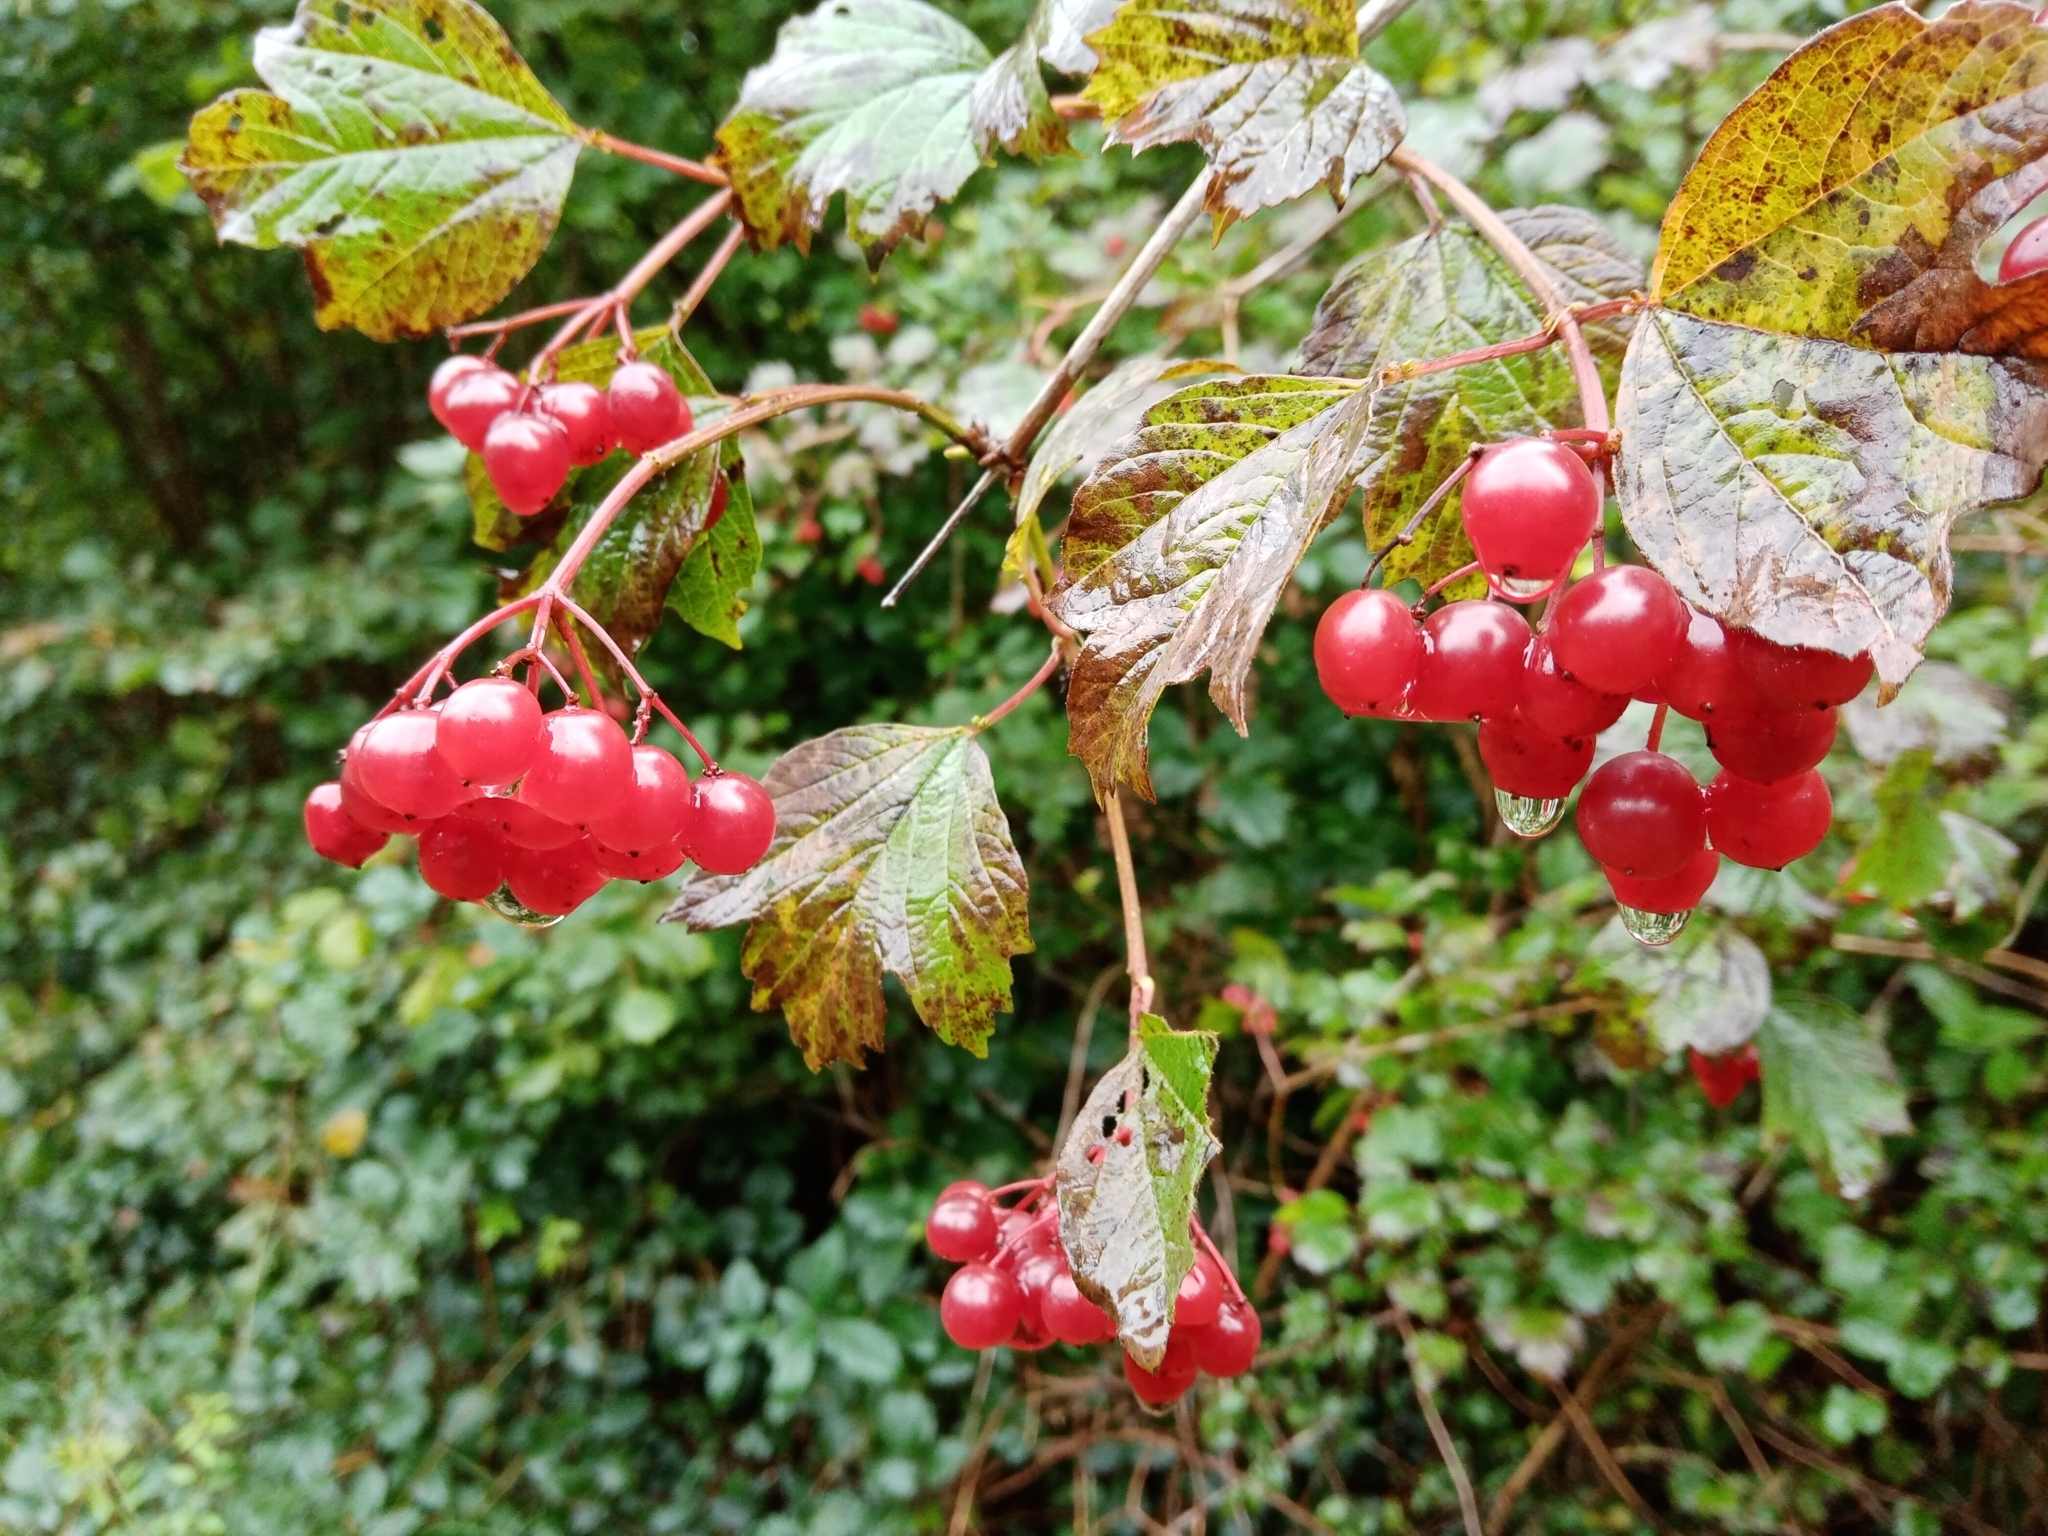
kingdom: Plantae
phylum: Tracheophyta
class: Magnoliopsida
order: Dipsacales
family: Viburnaceae
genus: Viburnum
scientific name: Viburnum opulus
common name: Guelder-rose
